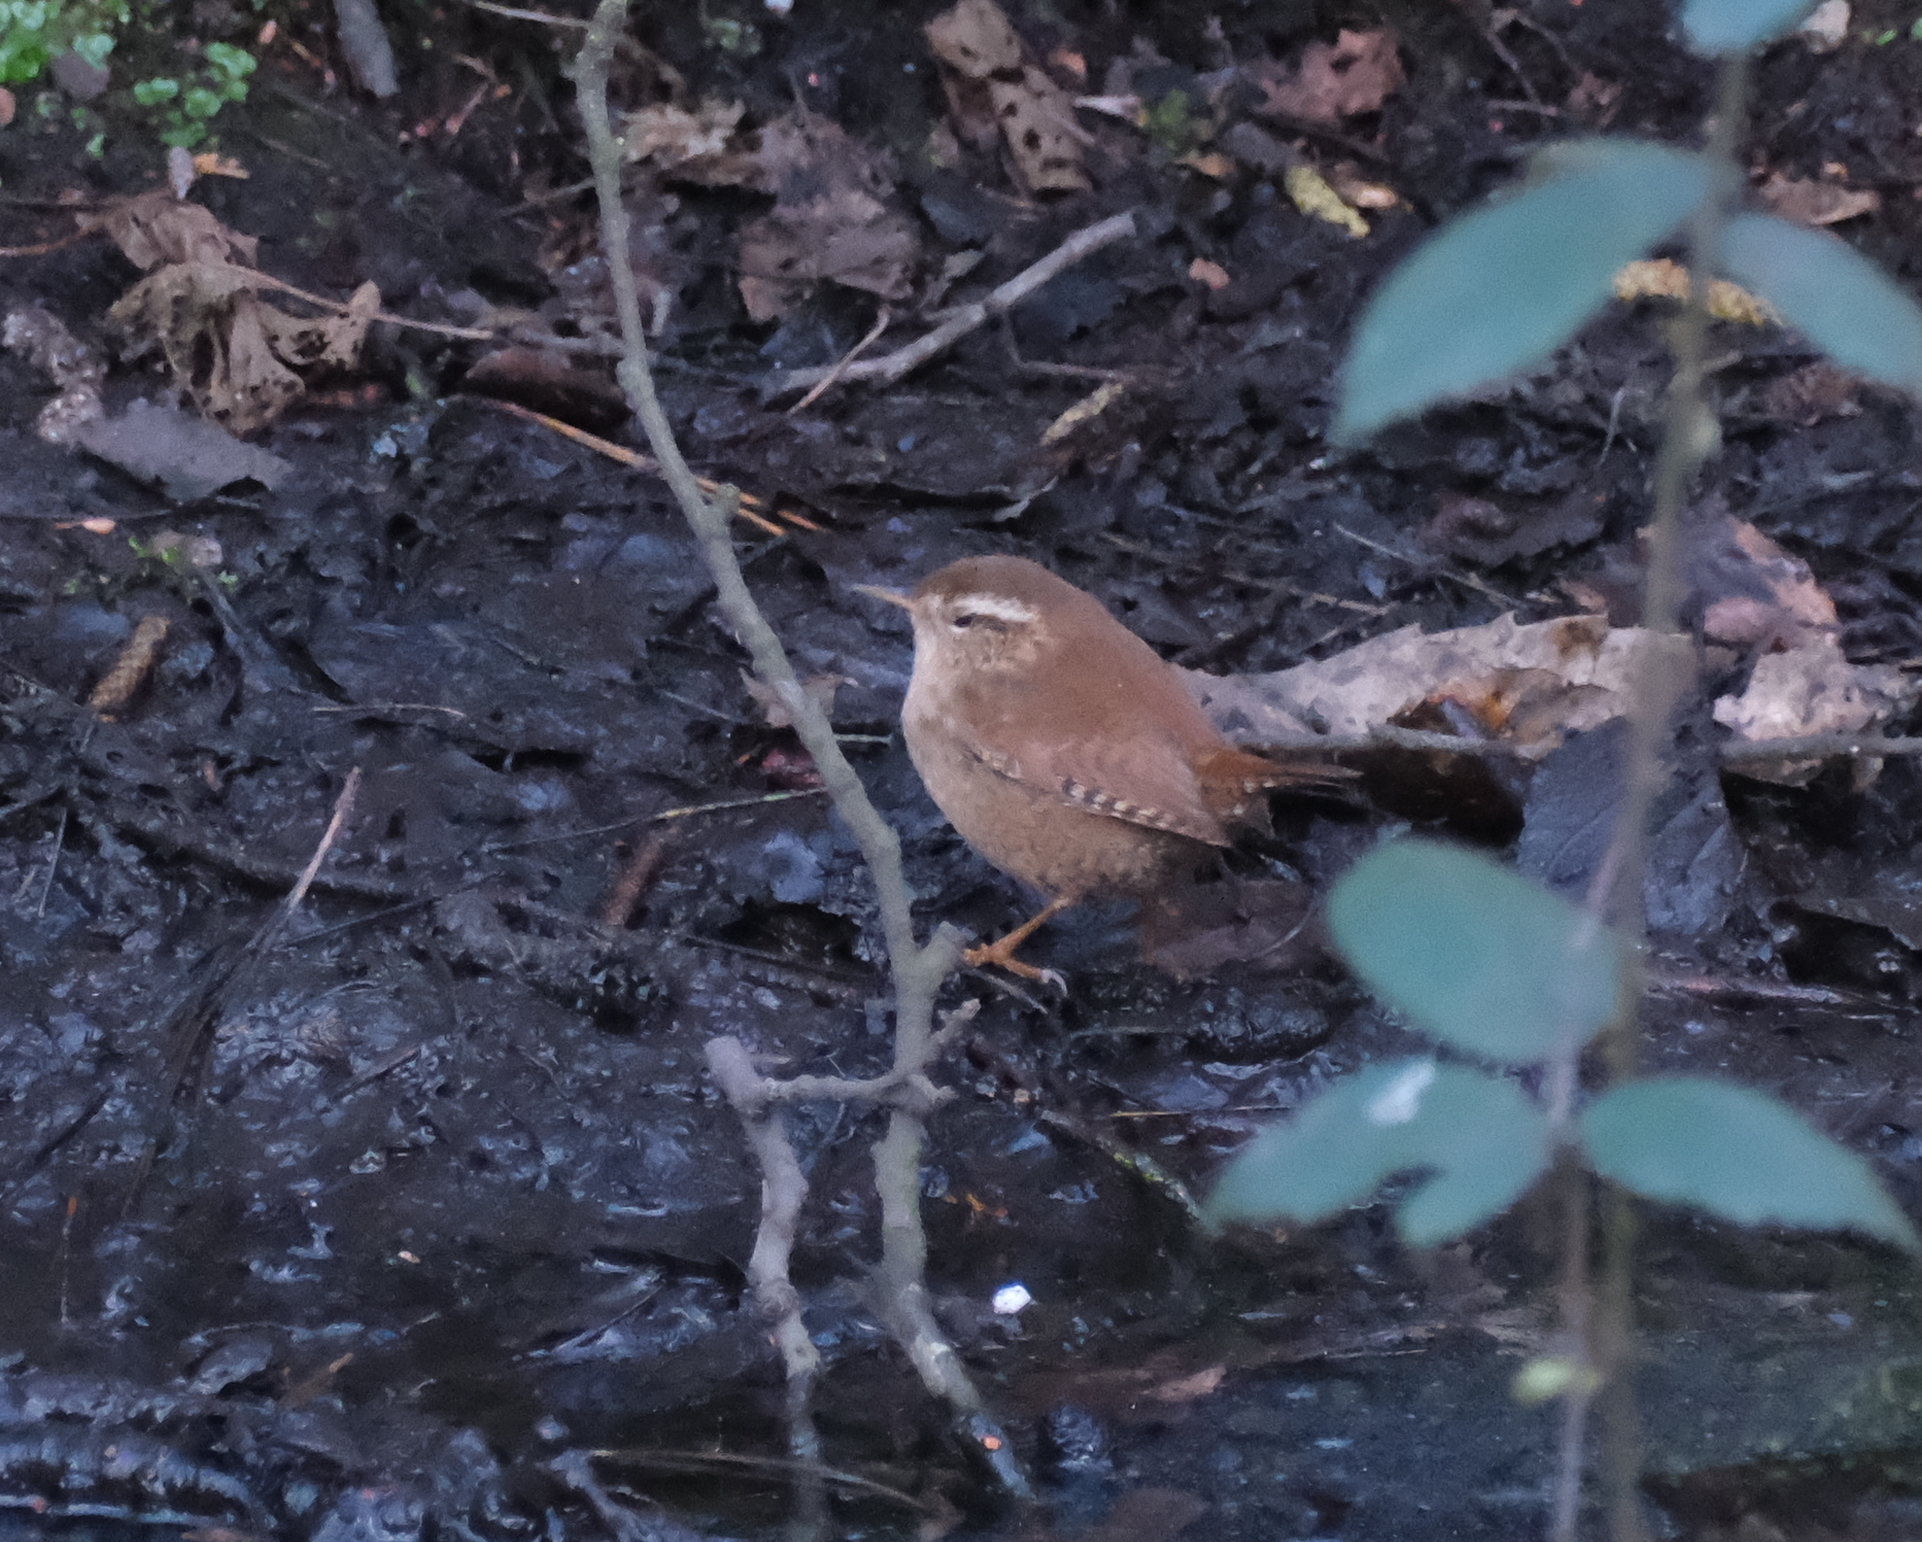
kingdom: Animalia
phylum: Chordata
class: Aves
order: Passeriformes
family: Troglodytidae
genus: Troglodytes
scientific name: Troglodytes troglodytes
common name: Eurasian wren
